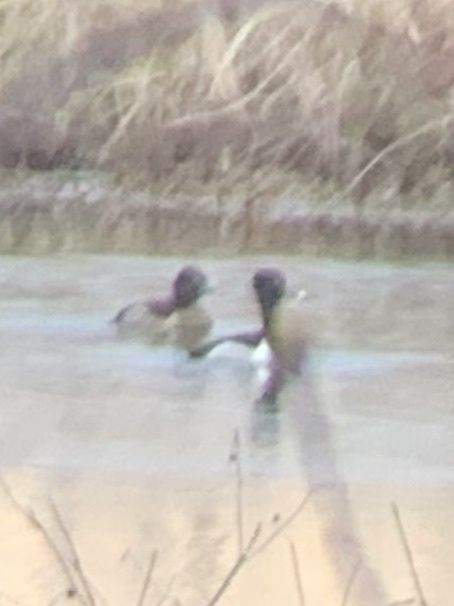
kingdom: Animalia
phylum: Chordata
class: Aves
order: Anseriformes
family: Anatidae
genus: Aythya
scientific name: Aythya collaris
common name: Ring-necked duck
